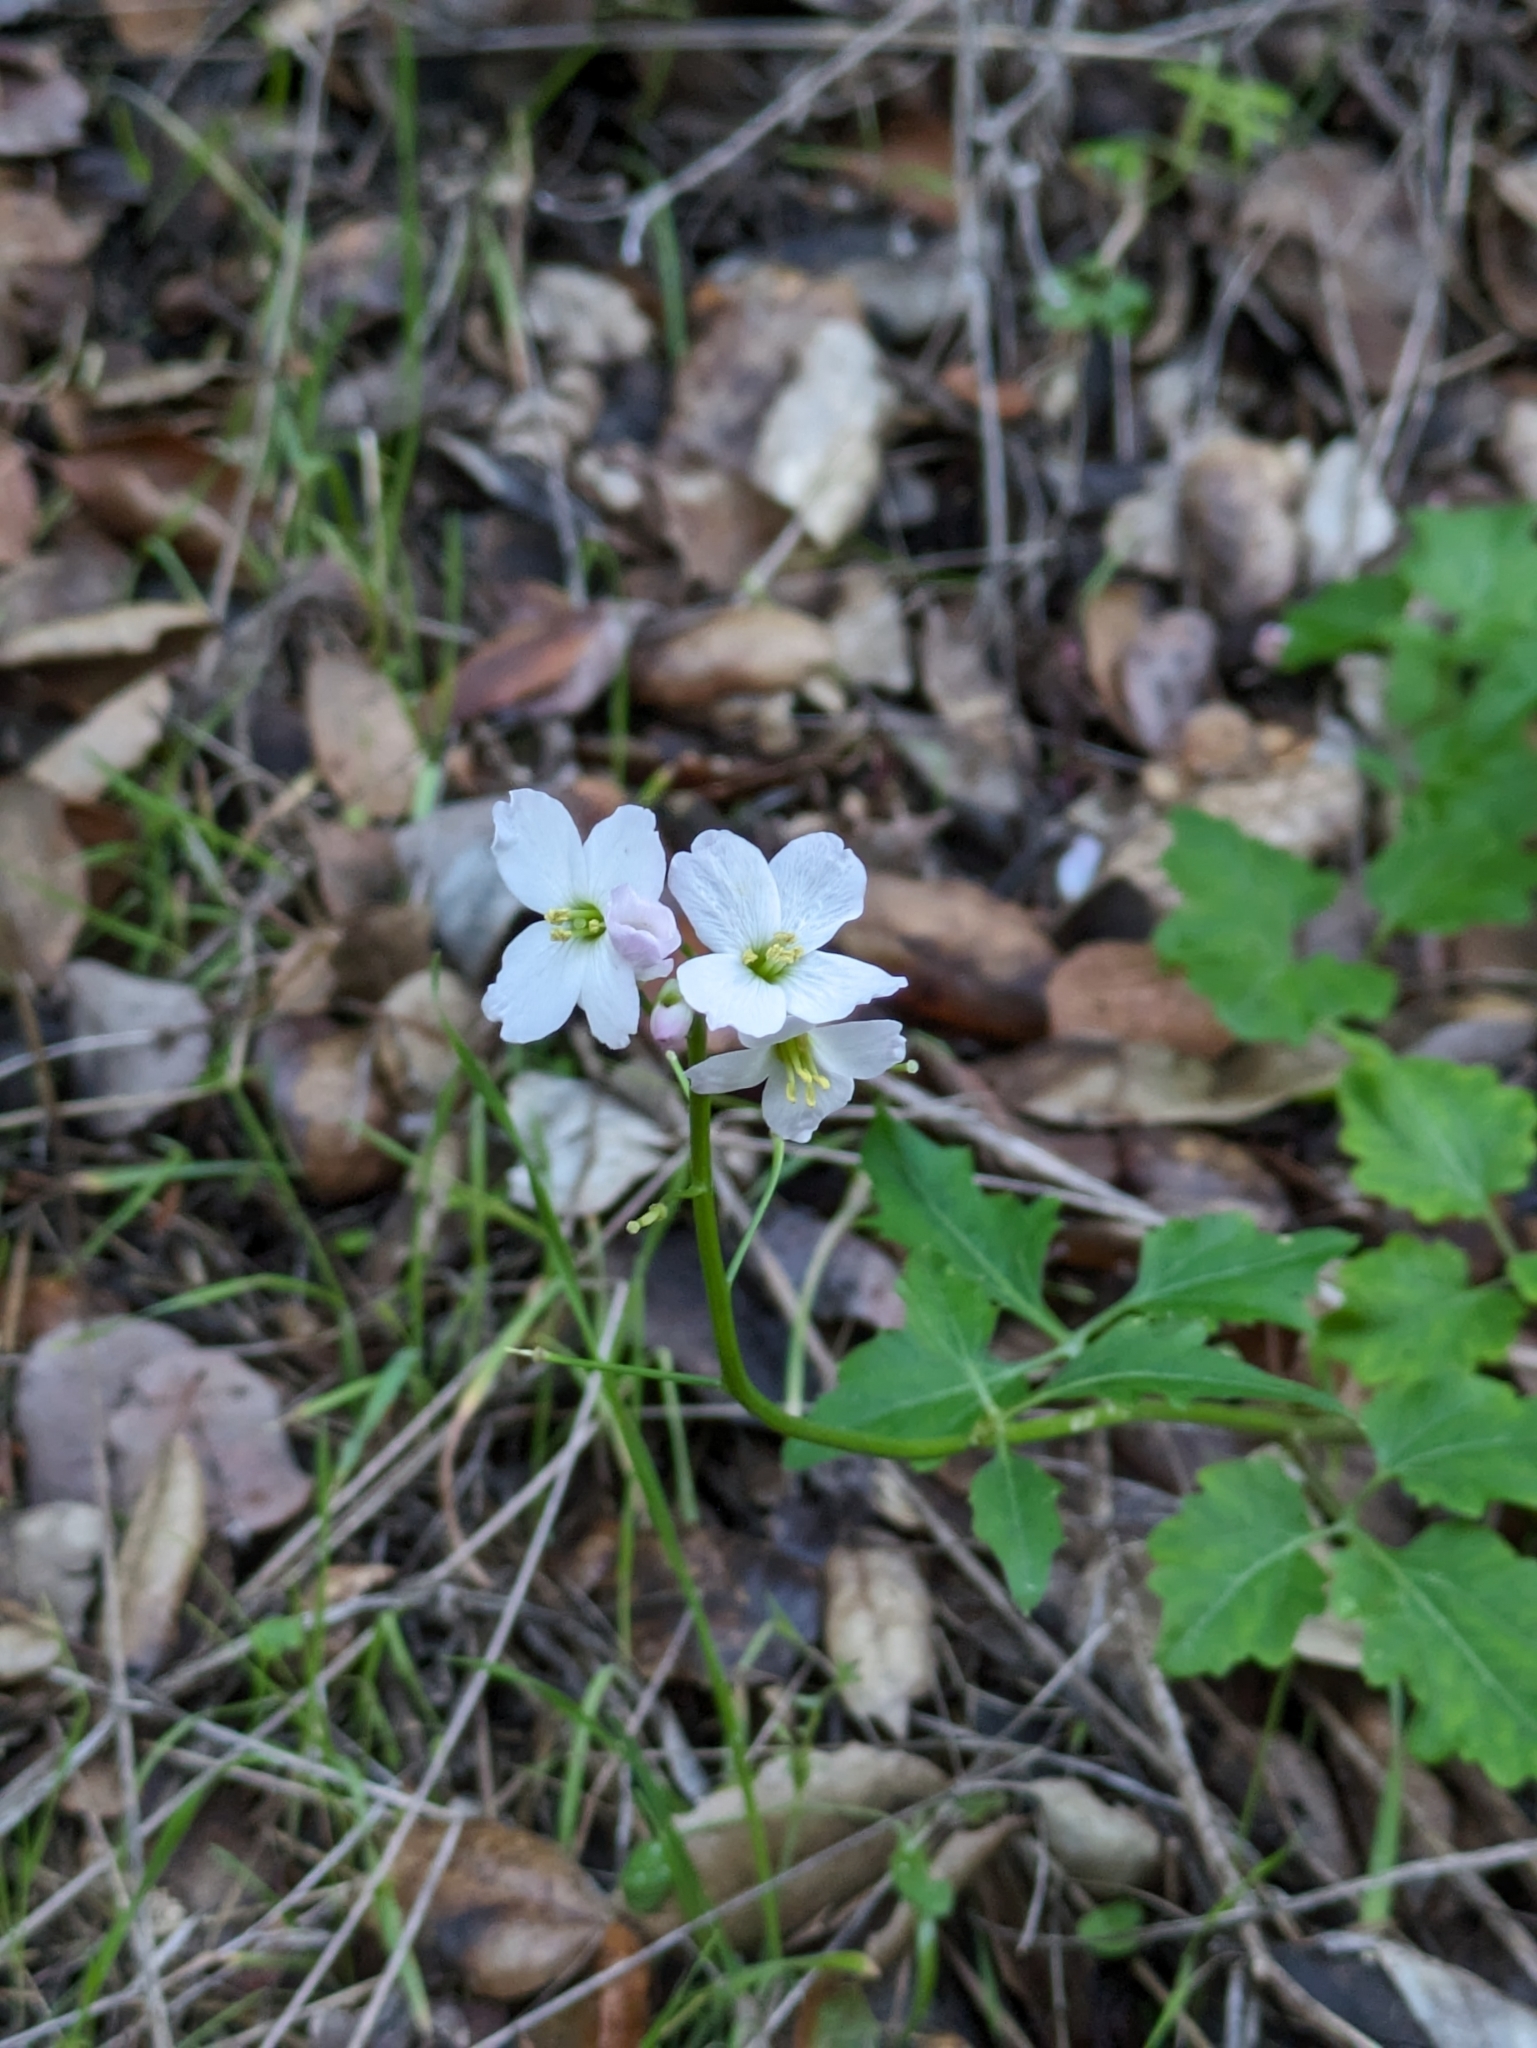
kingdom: Plantae
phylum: Tracheophyta
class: Magnoliopsida
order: Brassicales
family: Brassicaceae
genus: Cardamine
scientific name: Cardamine californica
